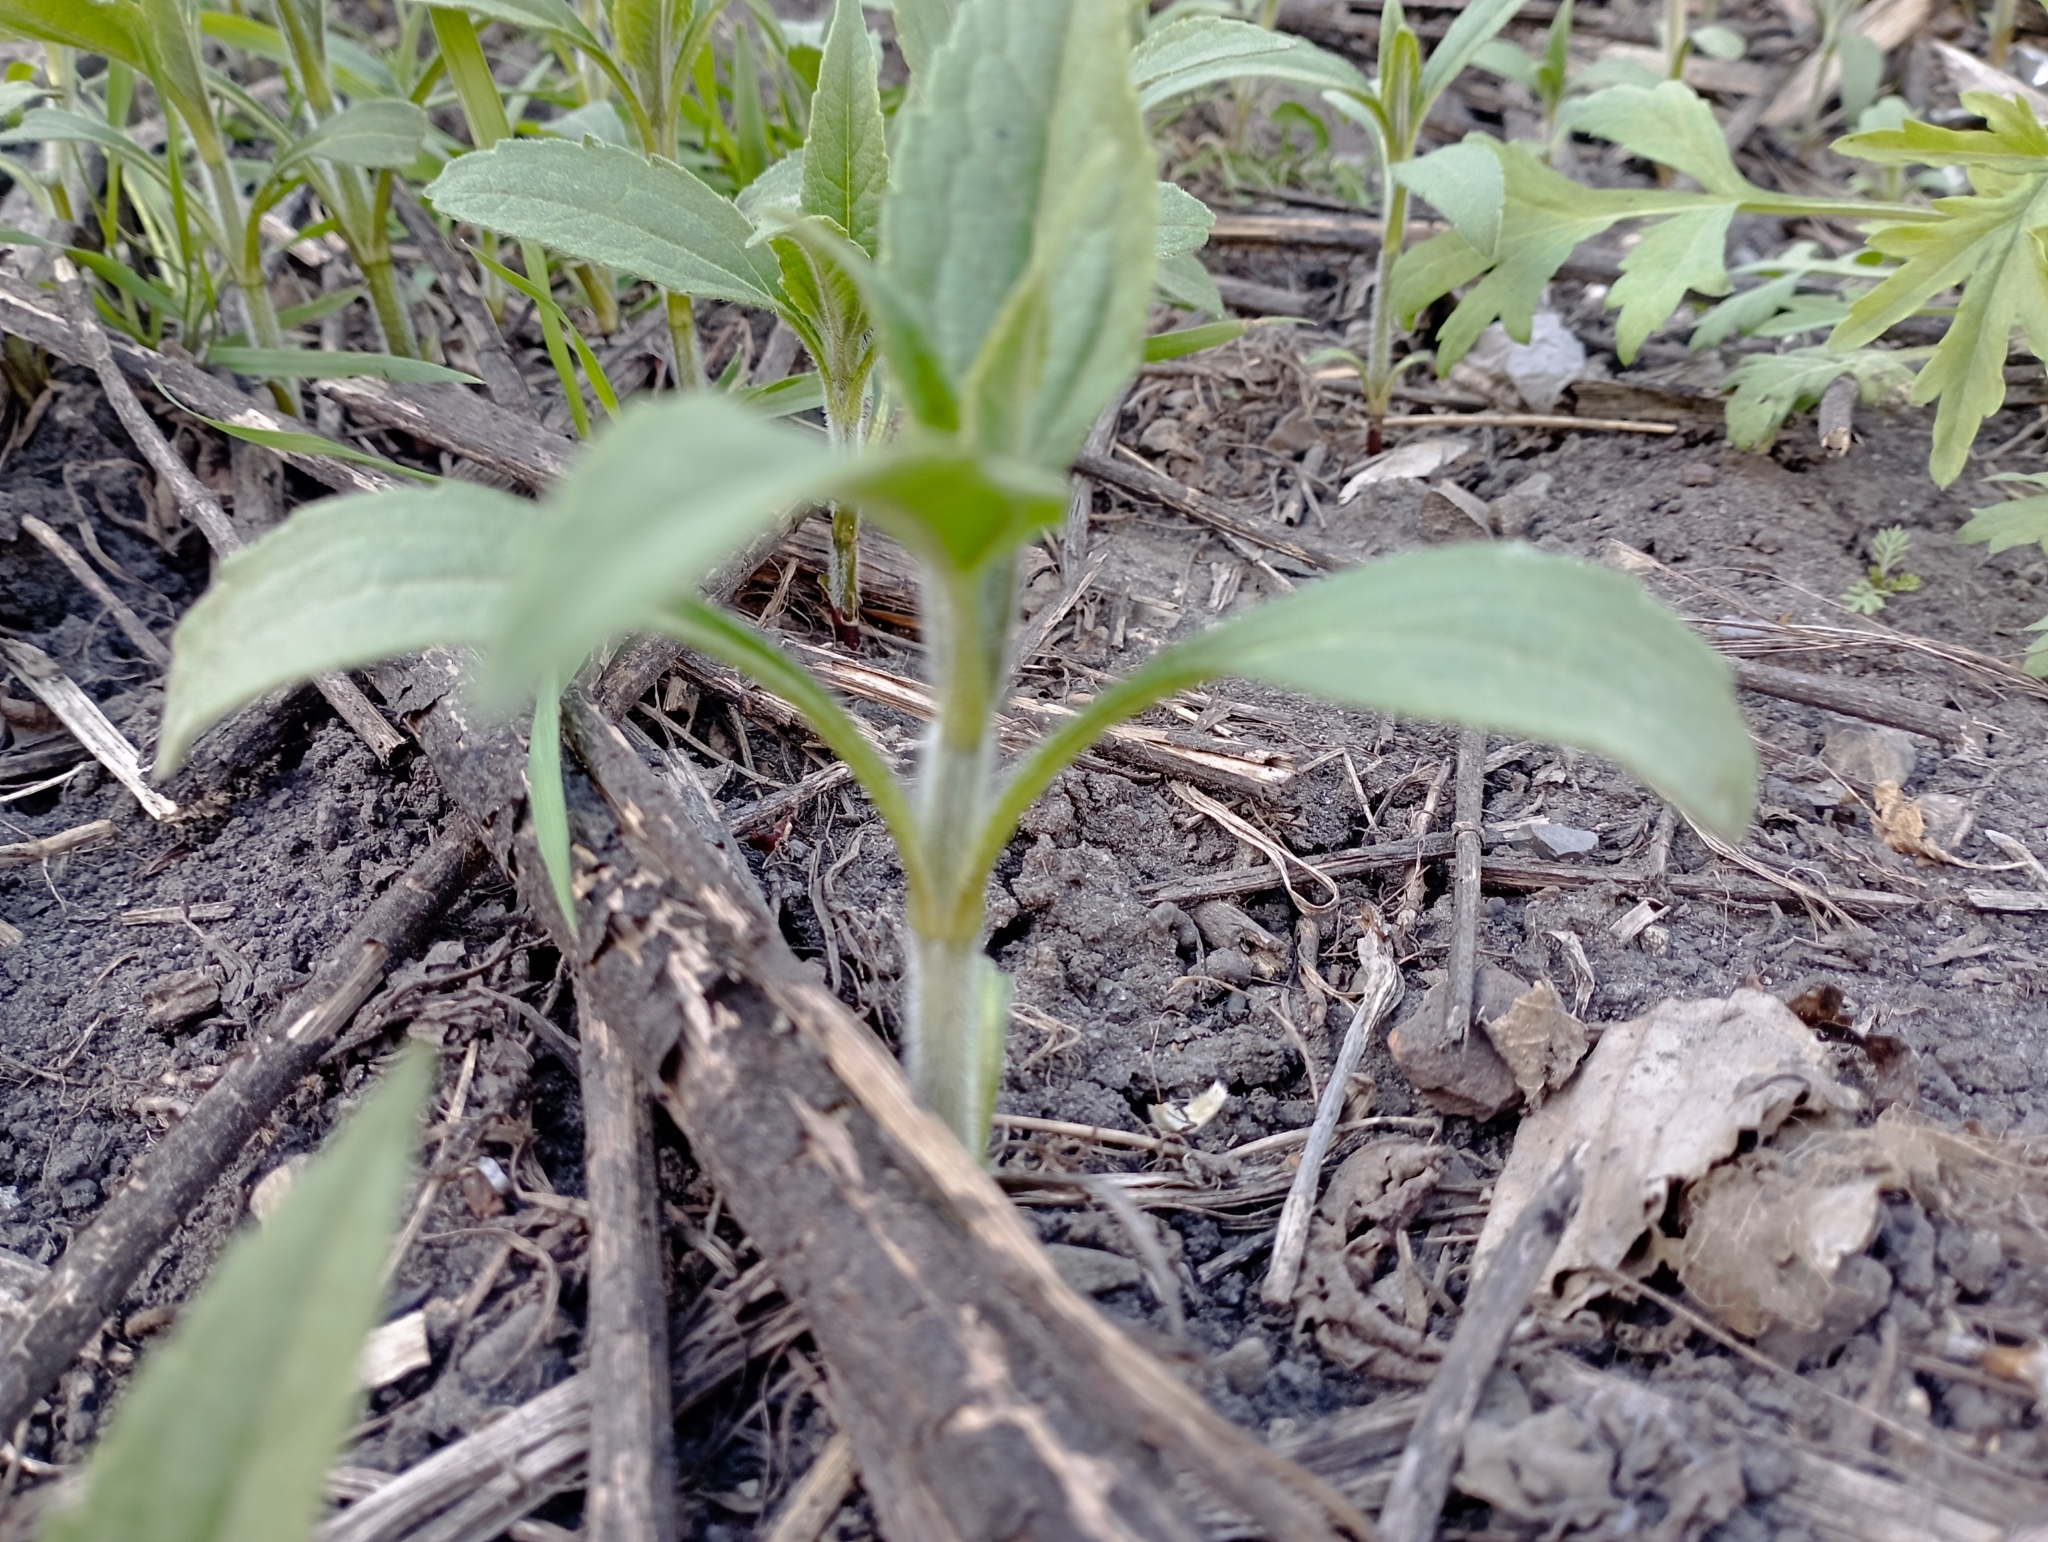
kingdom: Plantae
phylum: Tracheophyta
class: Magnoliopsida
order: Asterales
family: Asteraceae
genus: Helianthus
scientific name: Helianthus tuberosus
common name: Jerusalem artichoke
